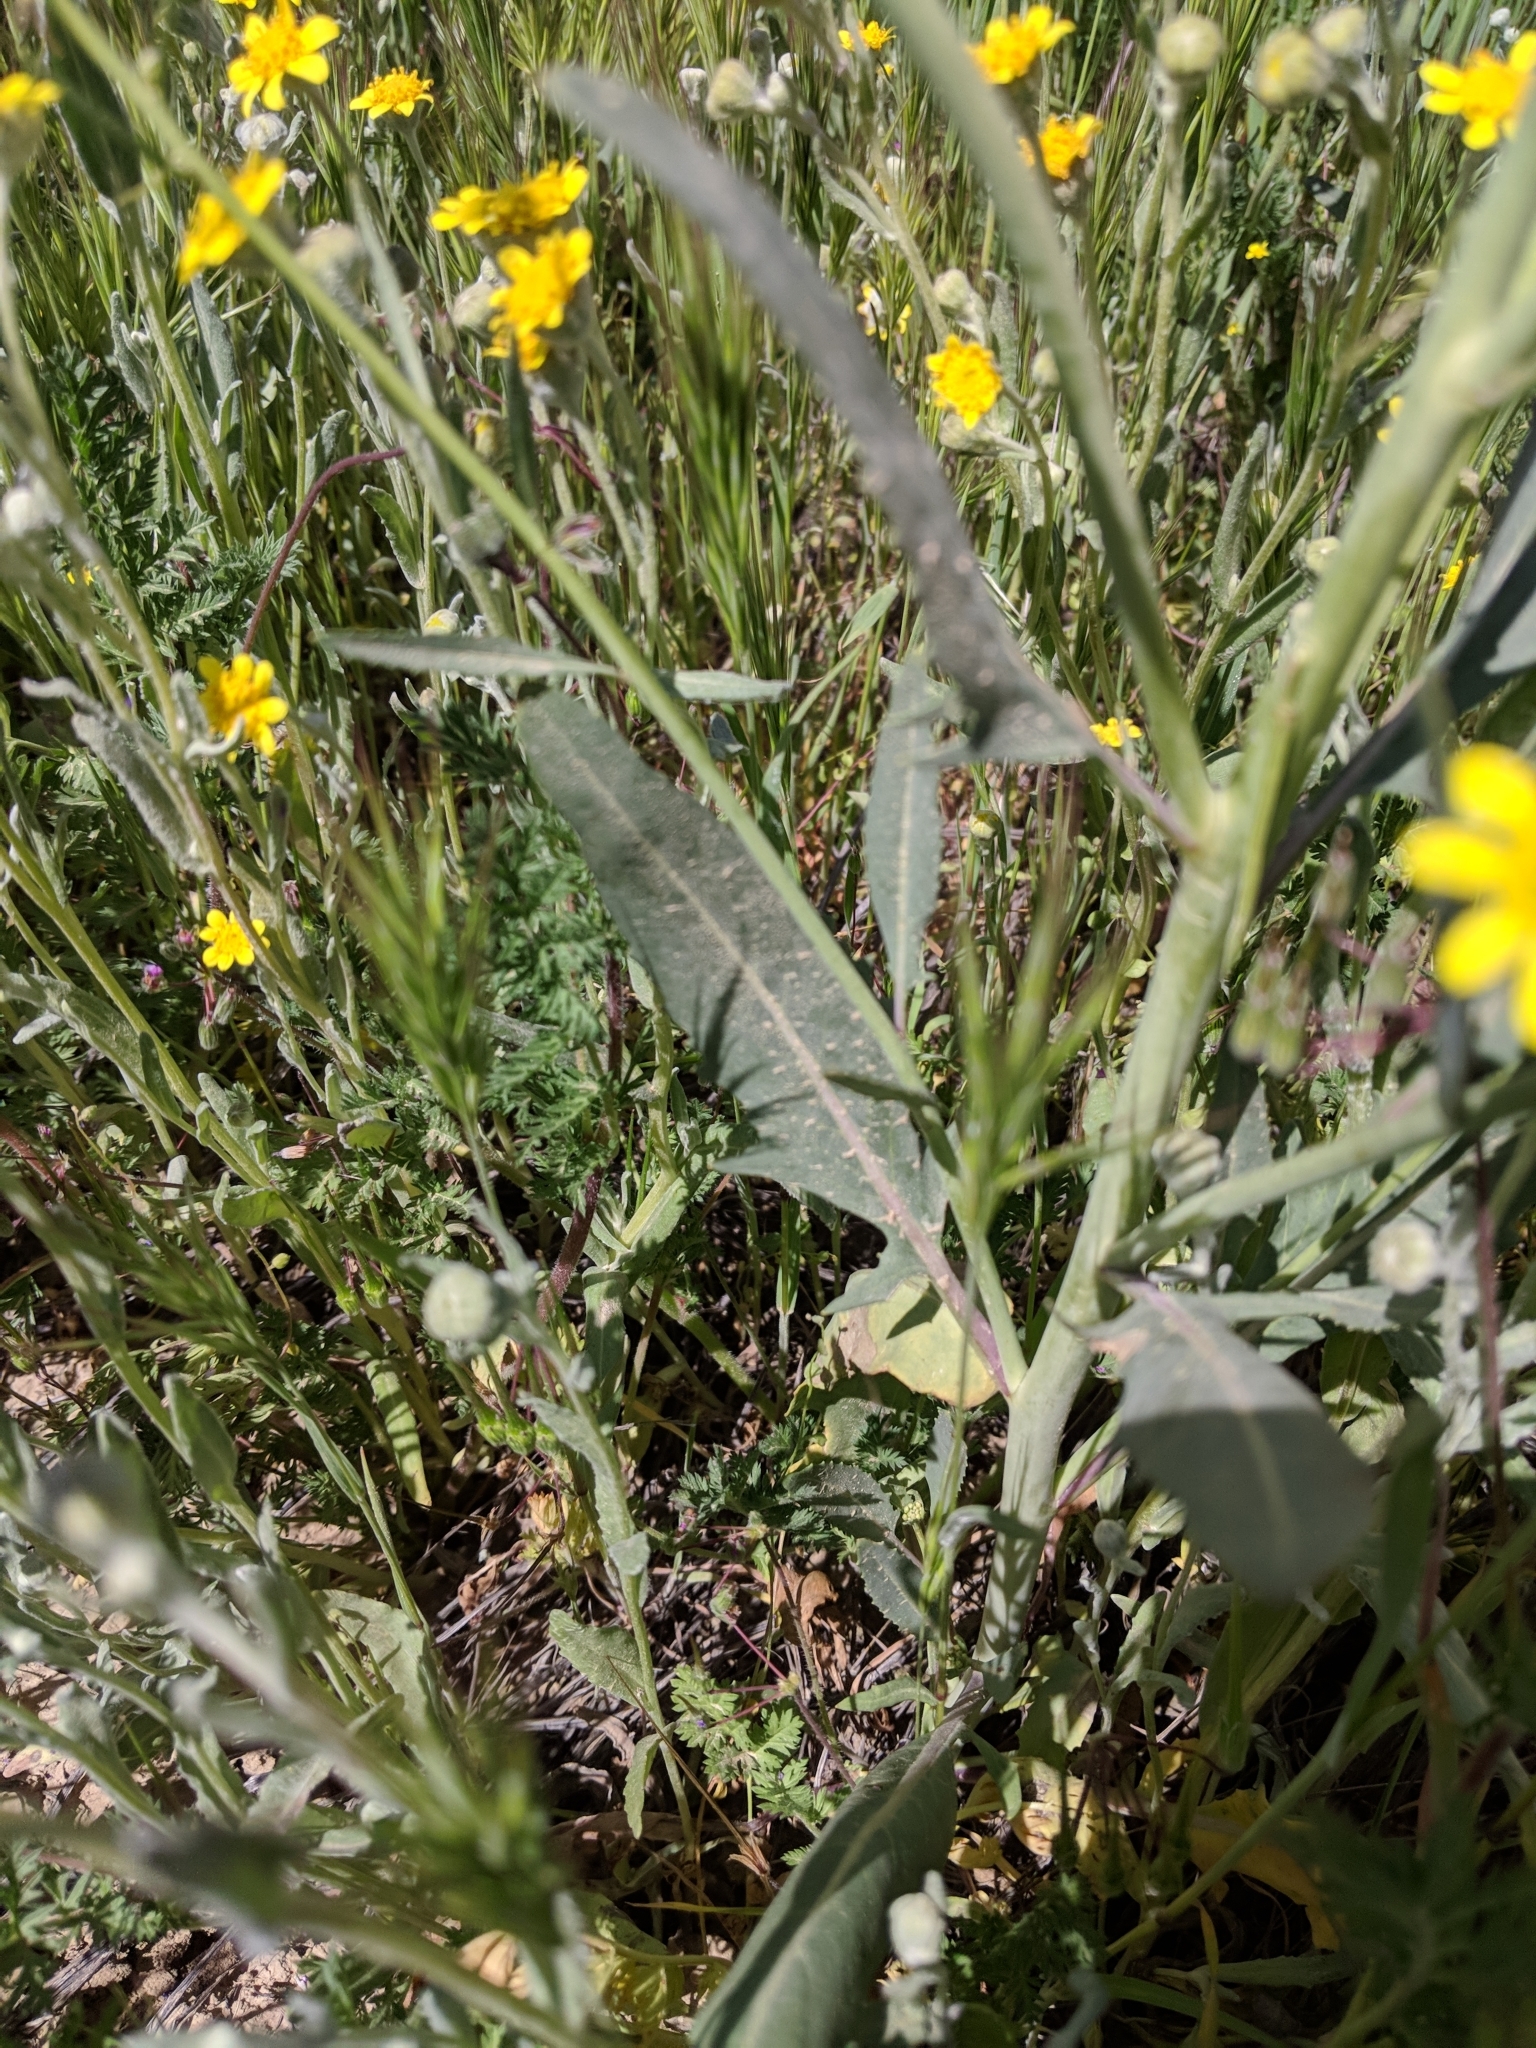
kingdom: Plantae
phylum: Tracheophyta
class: Magnoliopsida
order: Brassicales
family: Brassicaceae
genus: Streptanthus
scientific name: Streptanthus anceps
